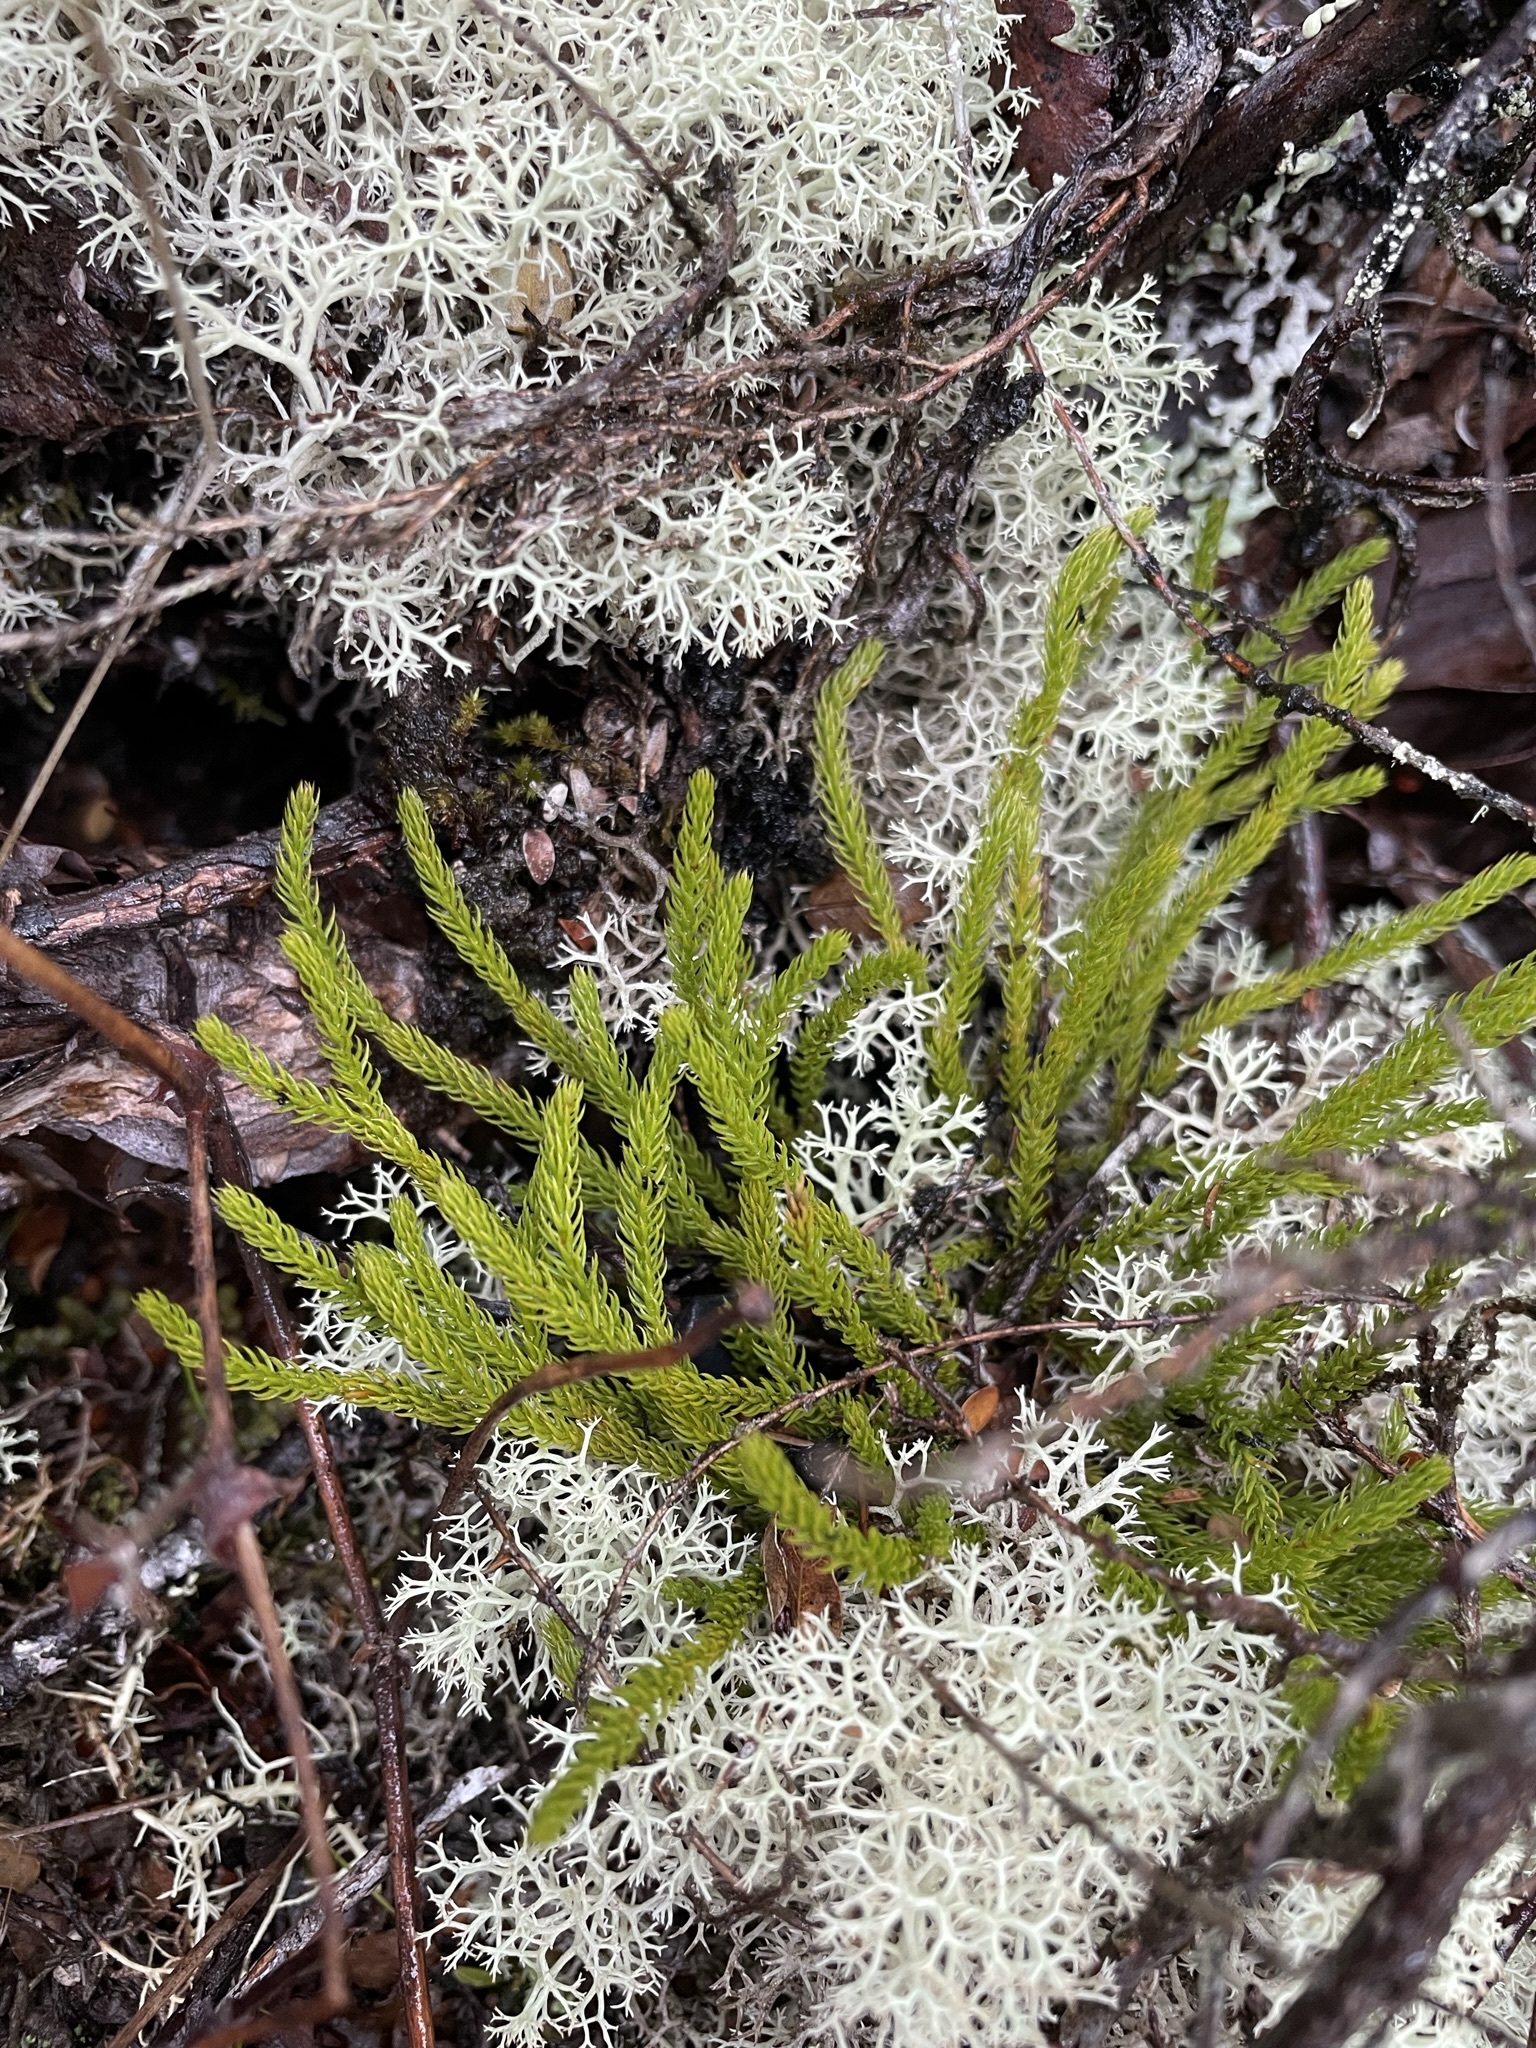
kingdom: Plantae
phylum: Tracheophyta
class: Lycopodiopsida
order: Lycopodiales
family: Lycopodiaceae
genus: Austrolycopodium
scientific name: Austrolycopodium fastigiatum
